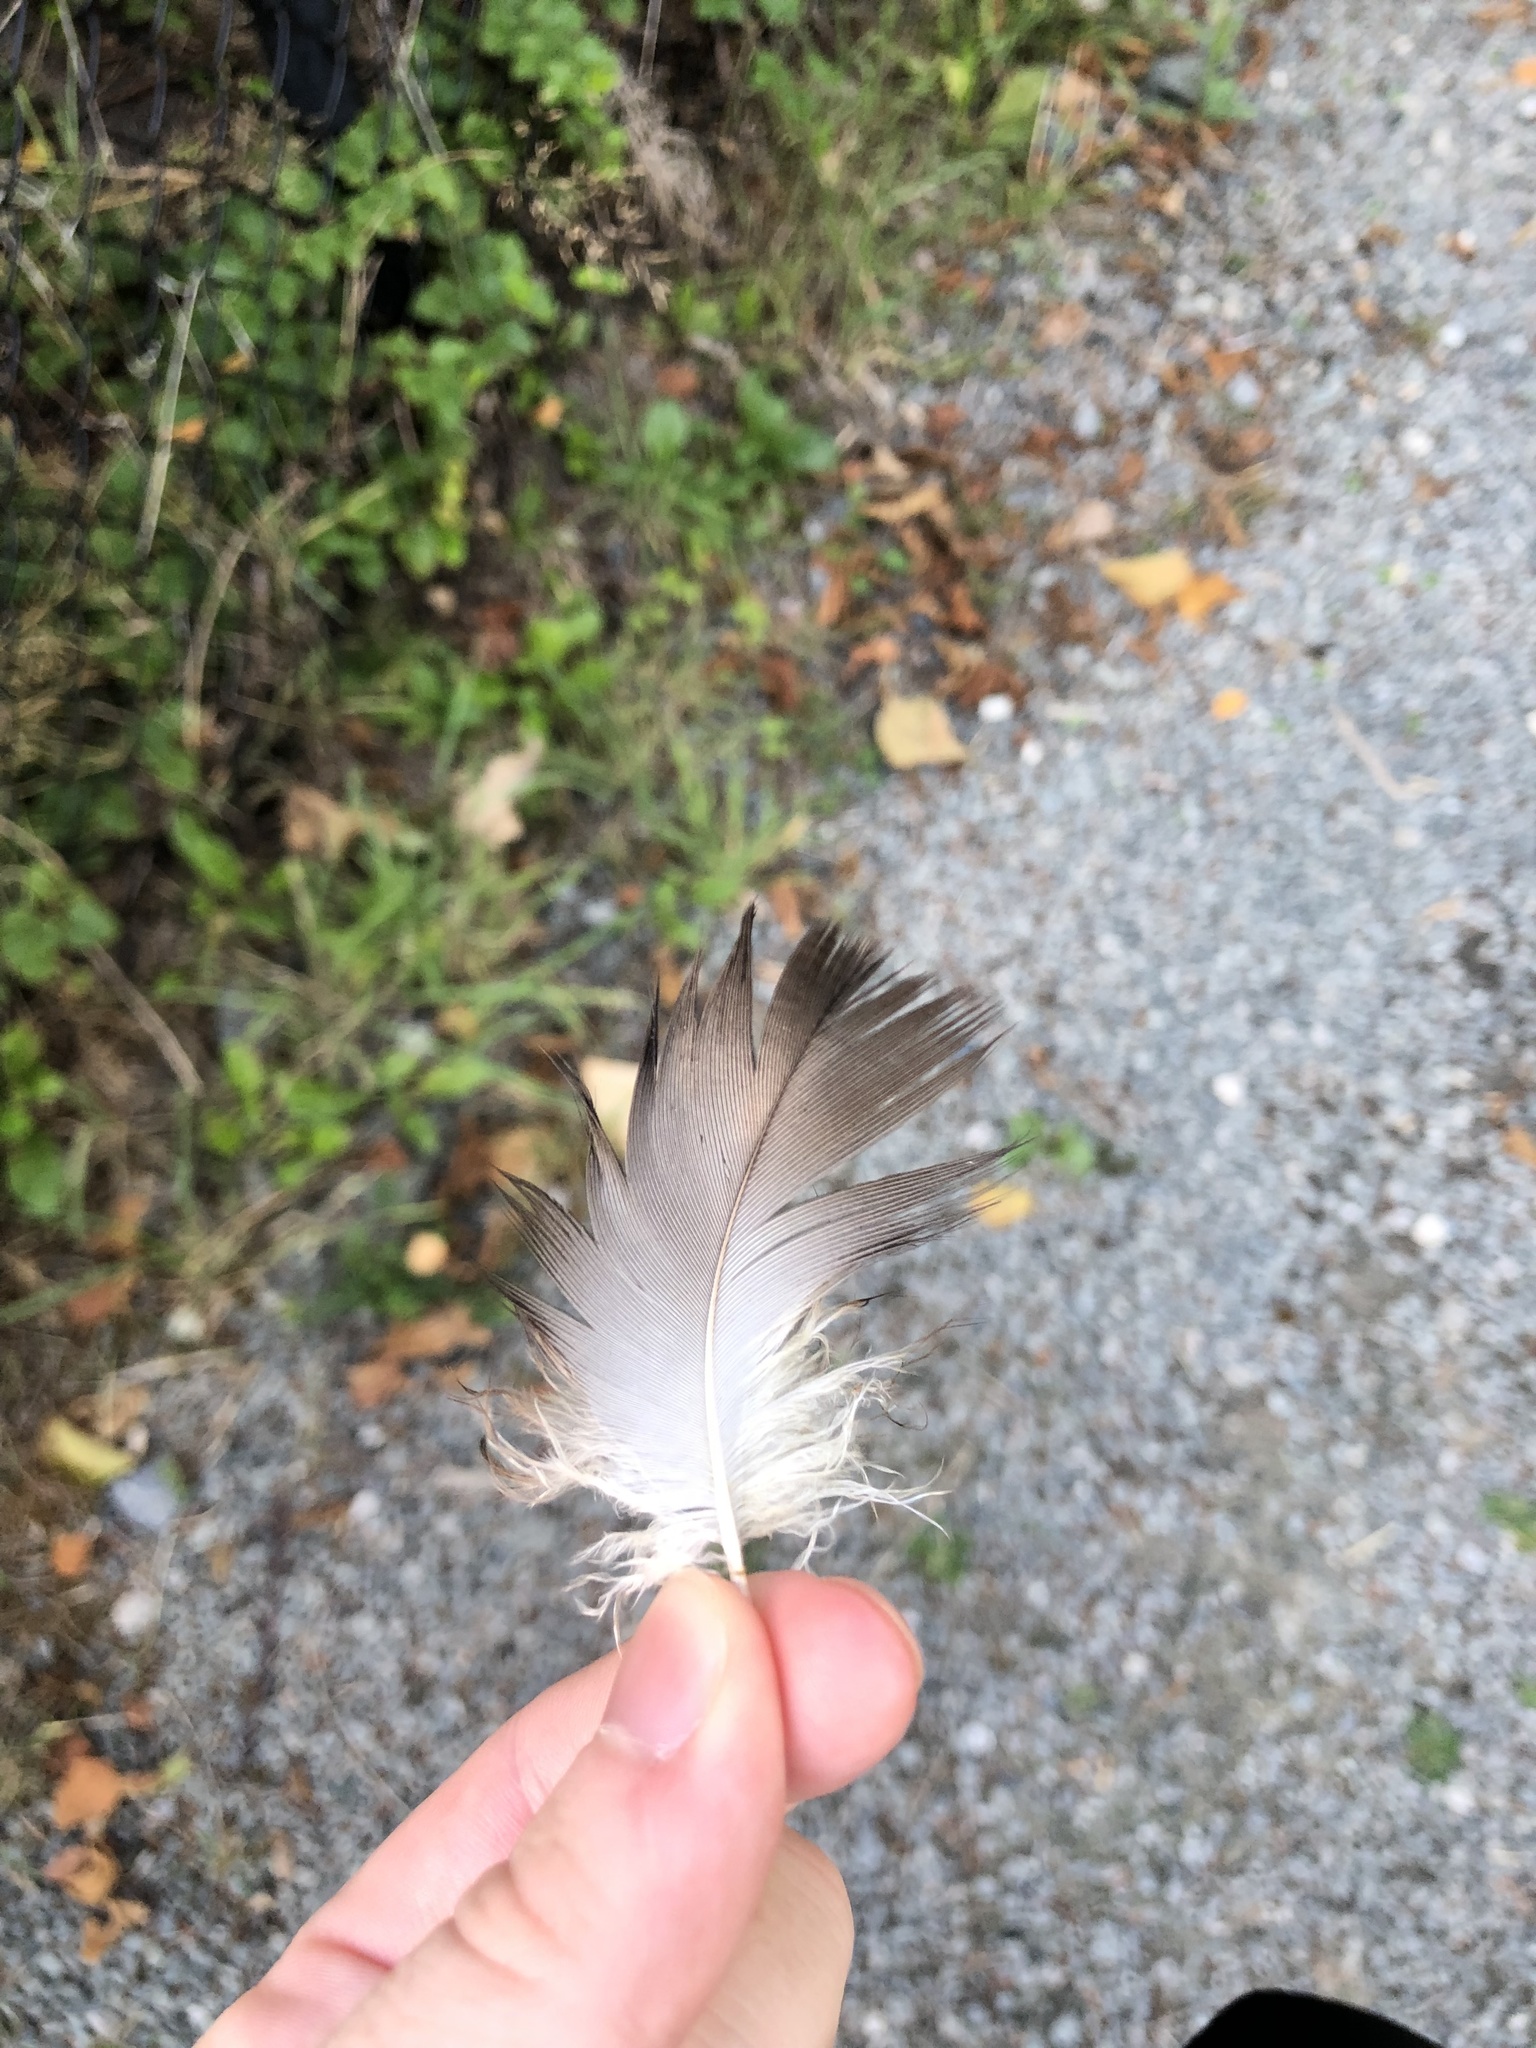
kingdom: Animalia
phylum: Chordata
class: Aves
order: Accipitriformes
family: Cathartidae
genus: Cathartes
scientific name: Cathartes aura
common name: Turkey vulture
